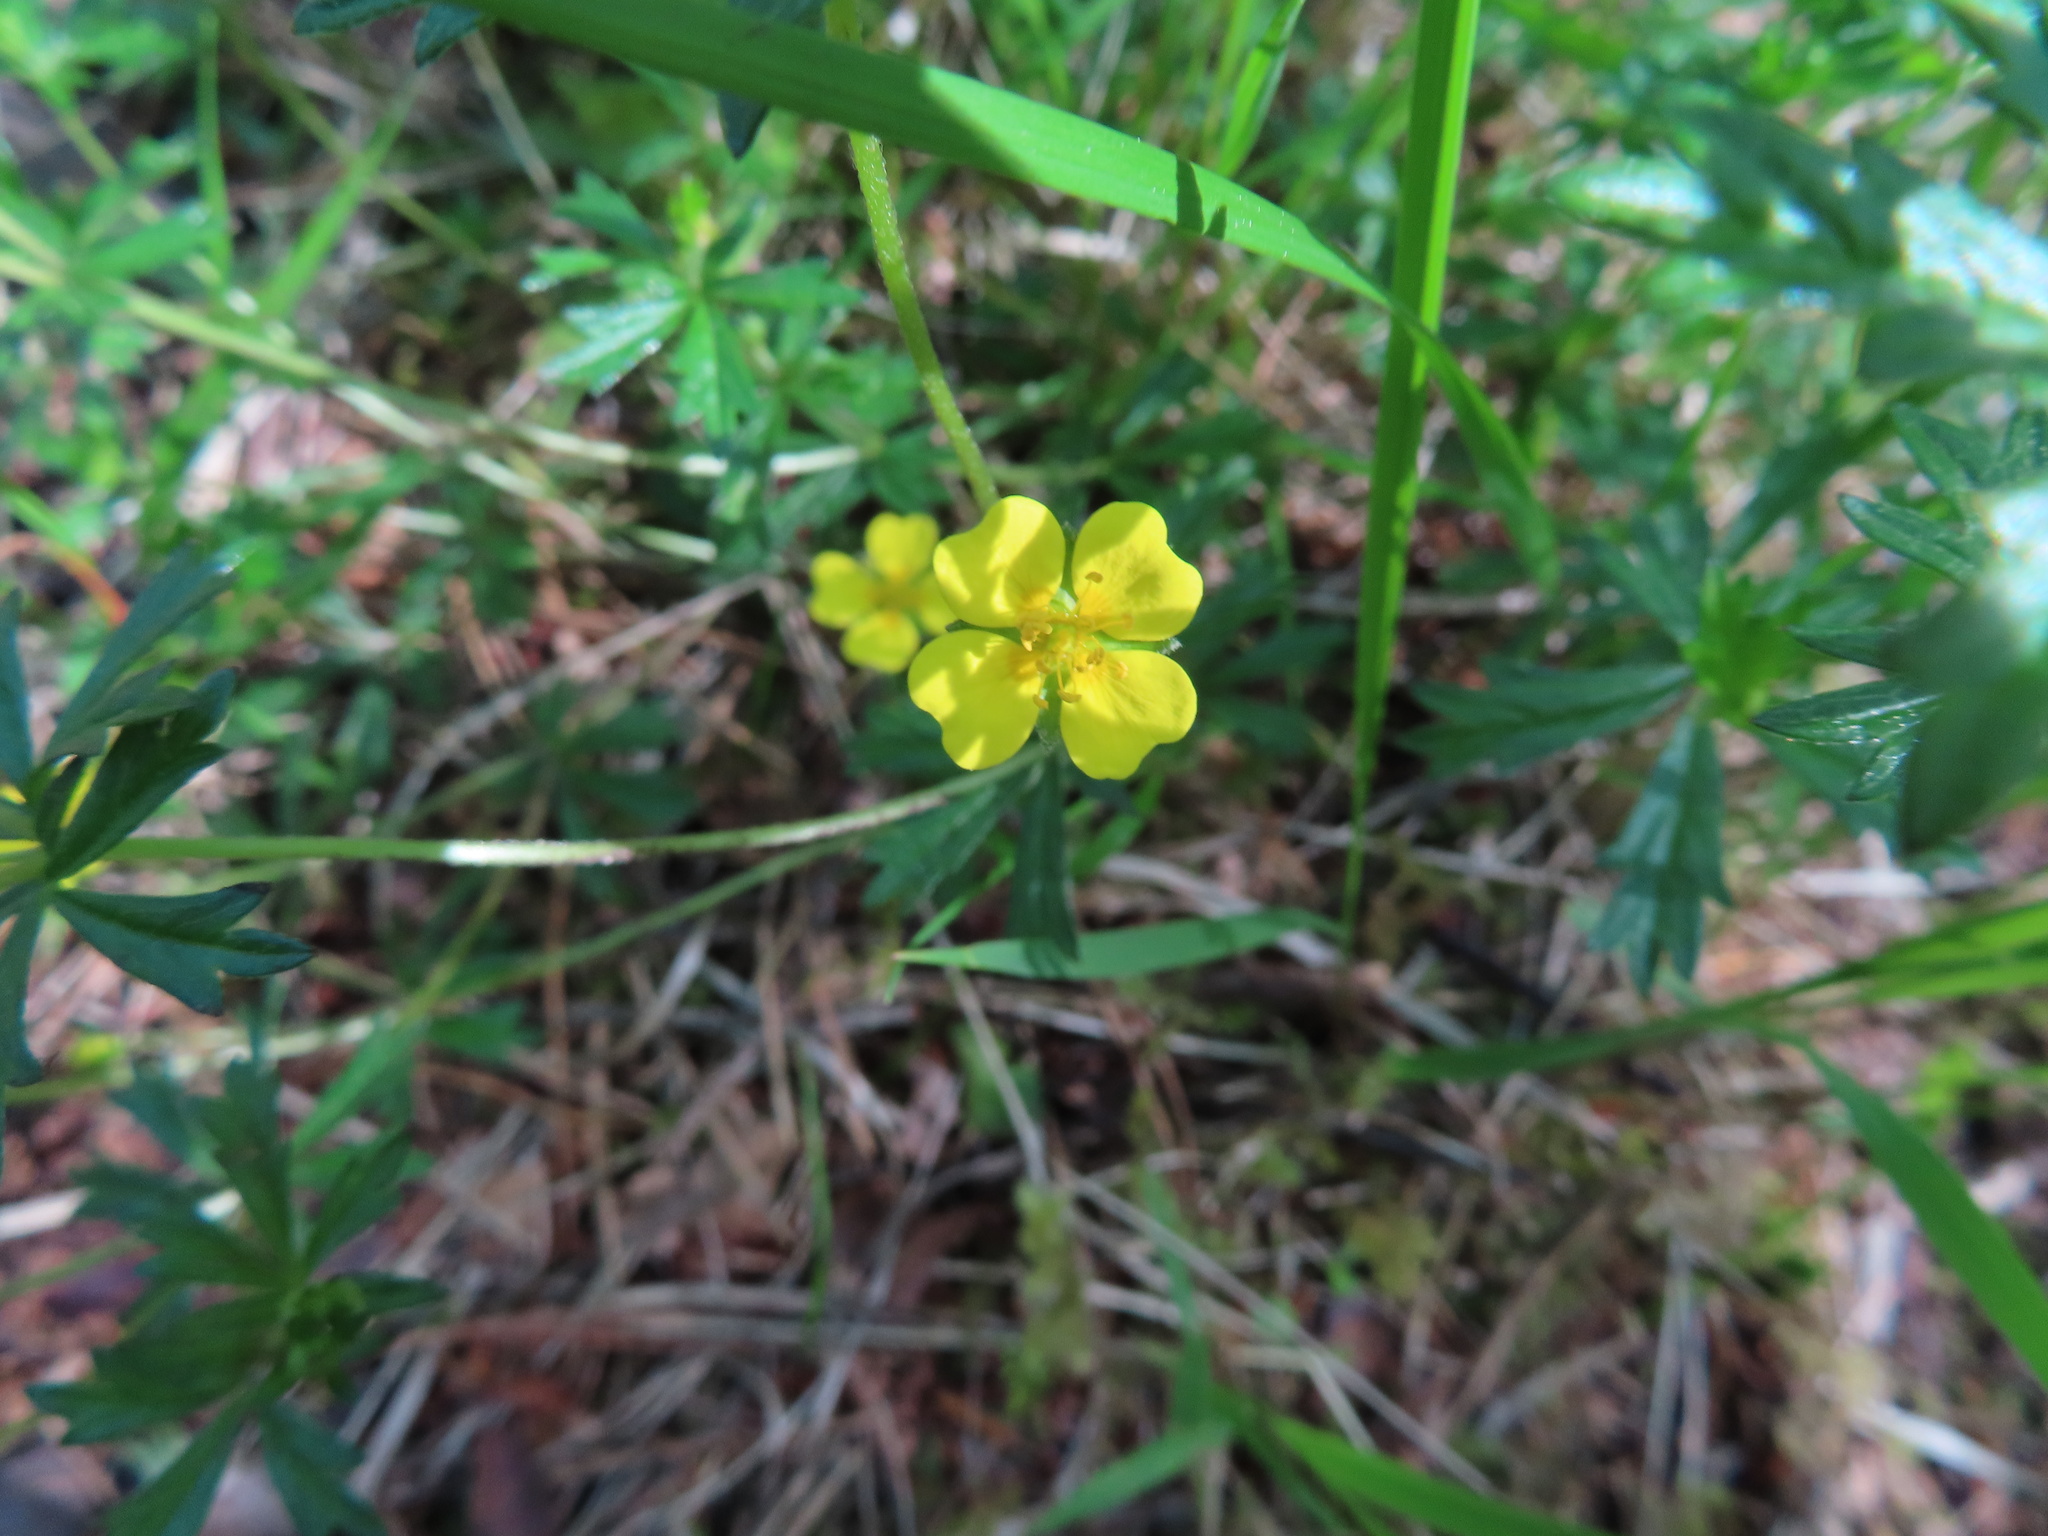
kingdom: Plantae
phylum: Tracheophyta
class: Magnoliopsida
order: Rosales
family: Rosaceae
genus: Potentilla
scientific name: Potentilla erecta
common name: Tormentil
